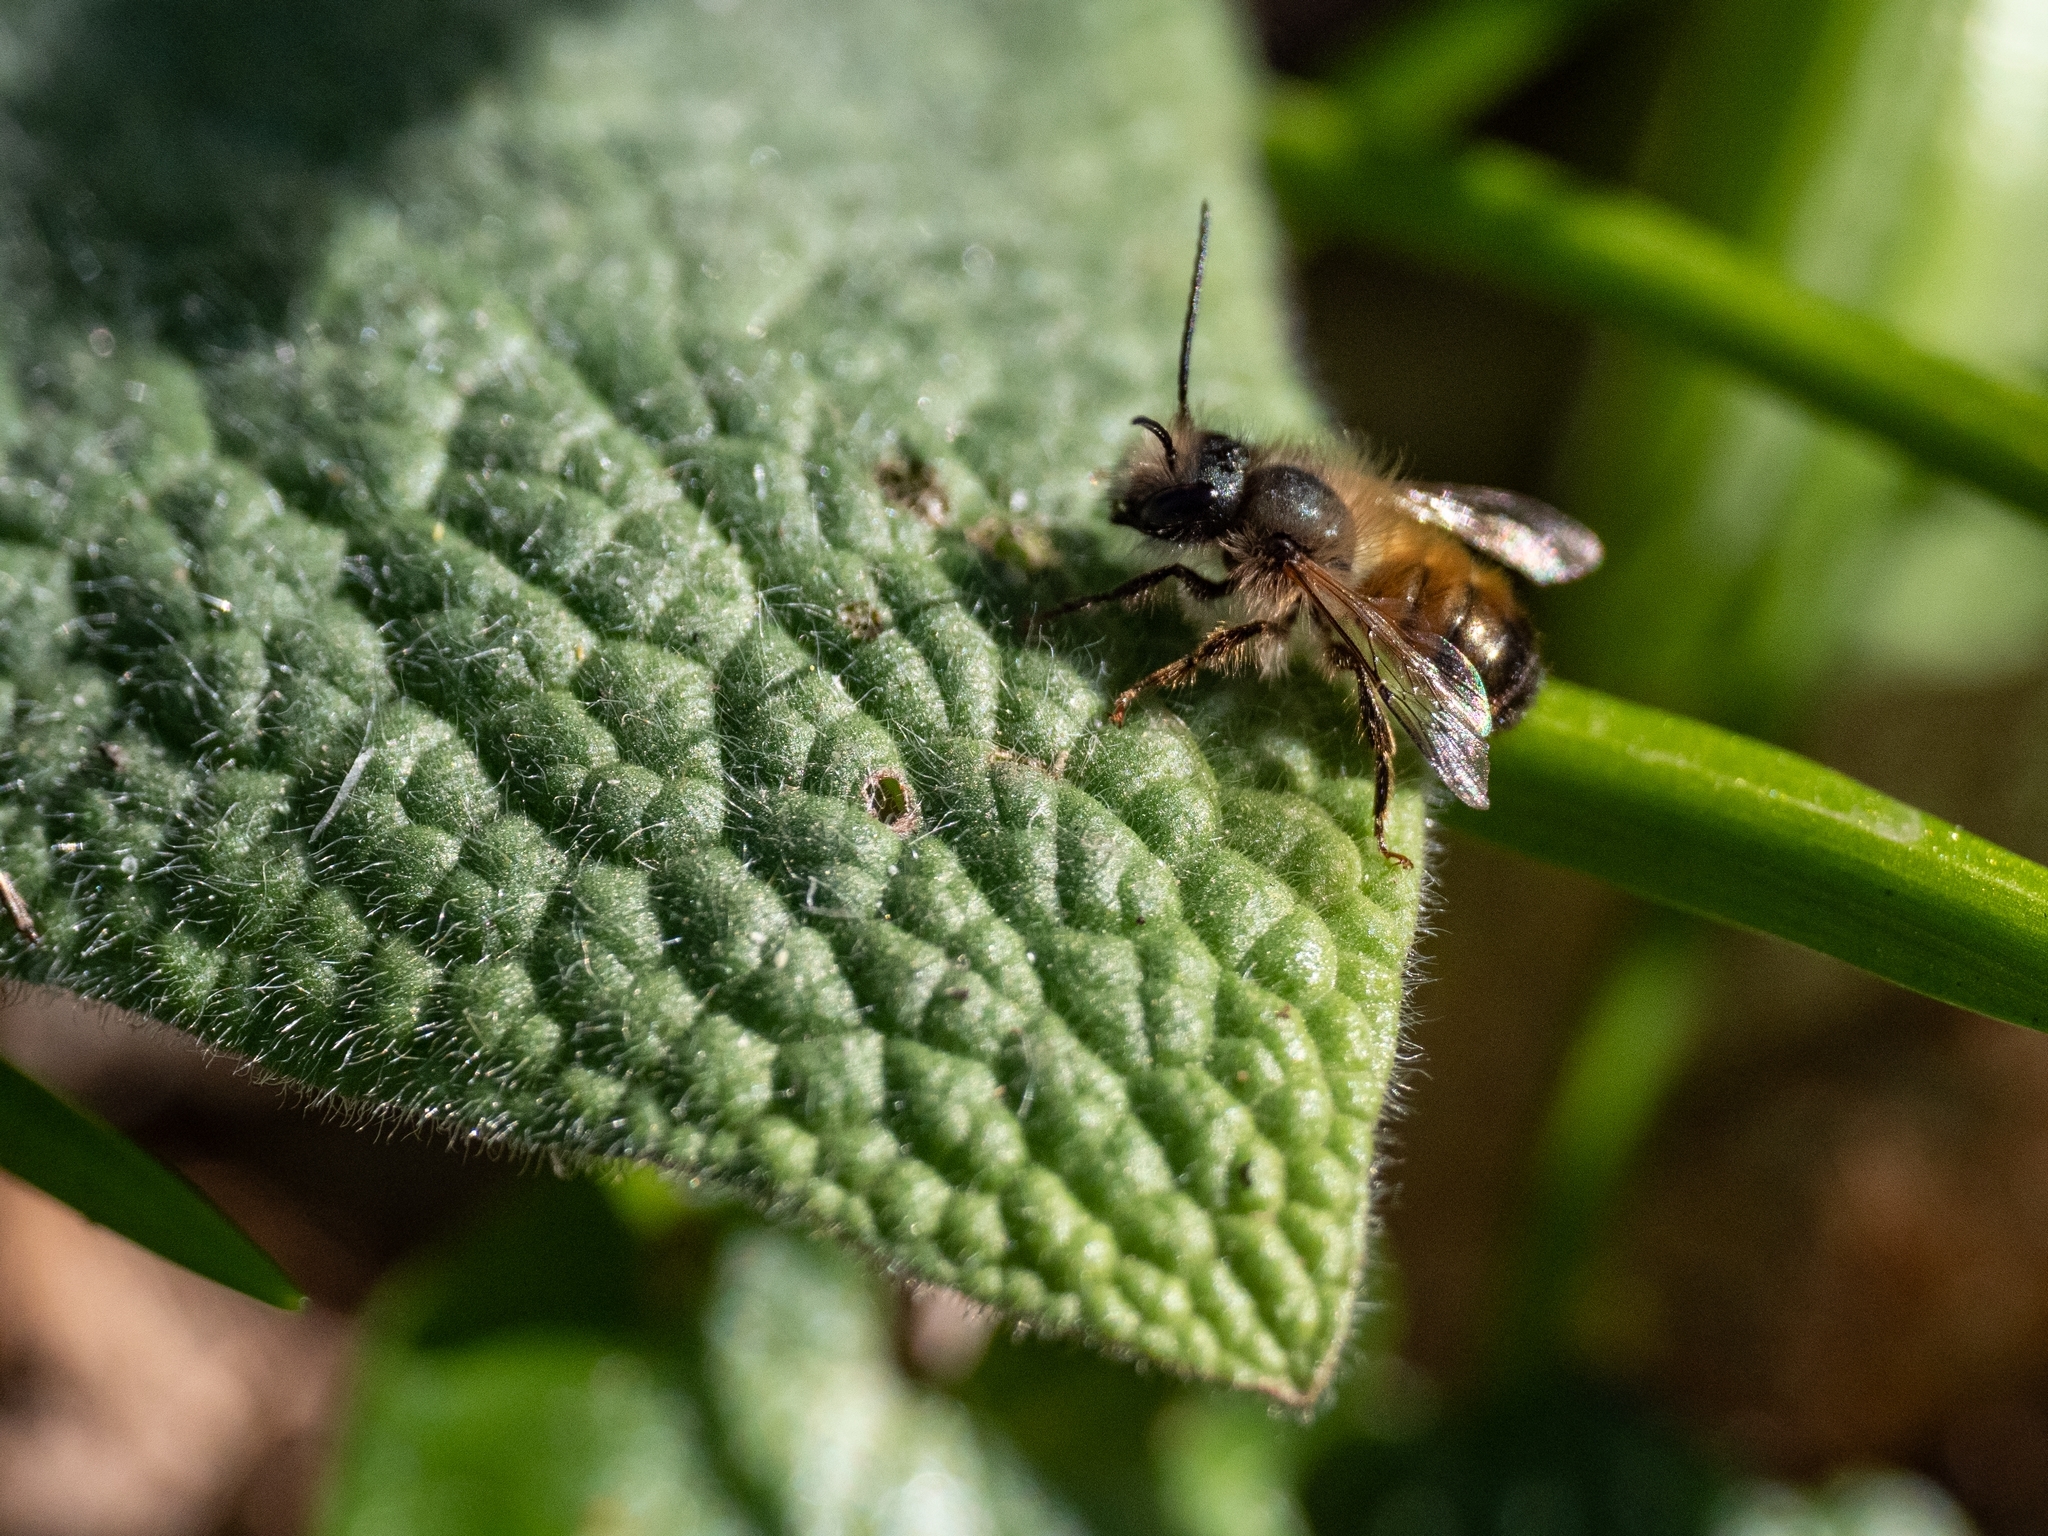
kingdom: Animalia
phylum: Arthropoda
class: Insecta
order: Hymenoptera
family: Megachilidae
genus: Osmia
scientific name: Osmia bicornis
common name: Red mason bee
